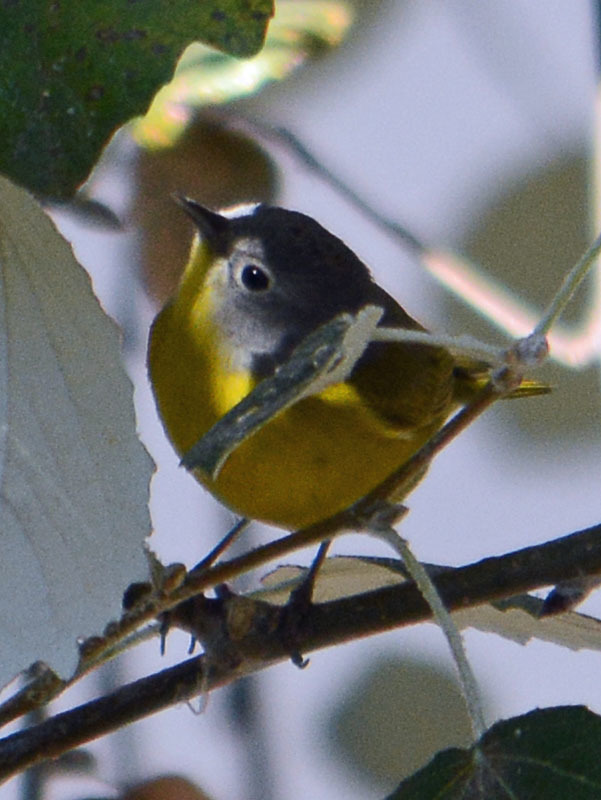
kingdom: Animalia
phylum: Chordata
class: Aves
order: Passeriformes
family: Parulidae
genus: Leiothlypis
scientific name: Leiothlypis ruficapilla
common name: Nashville warbler
